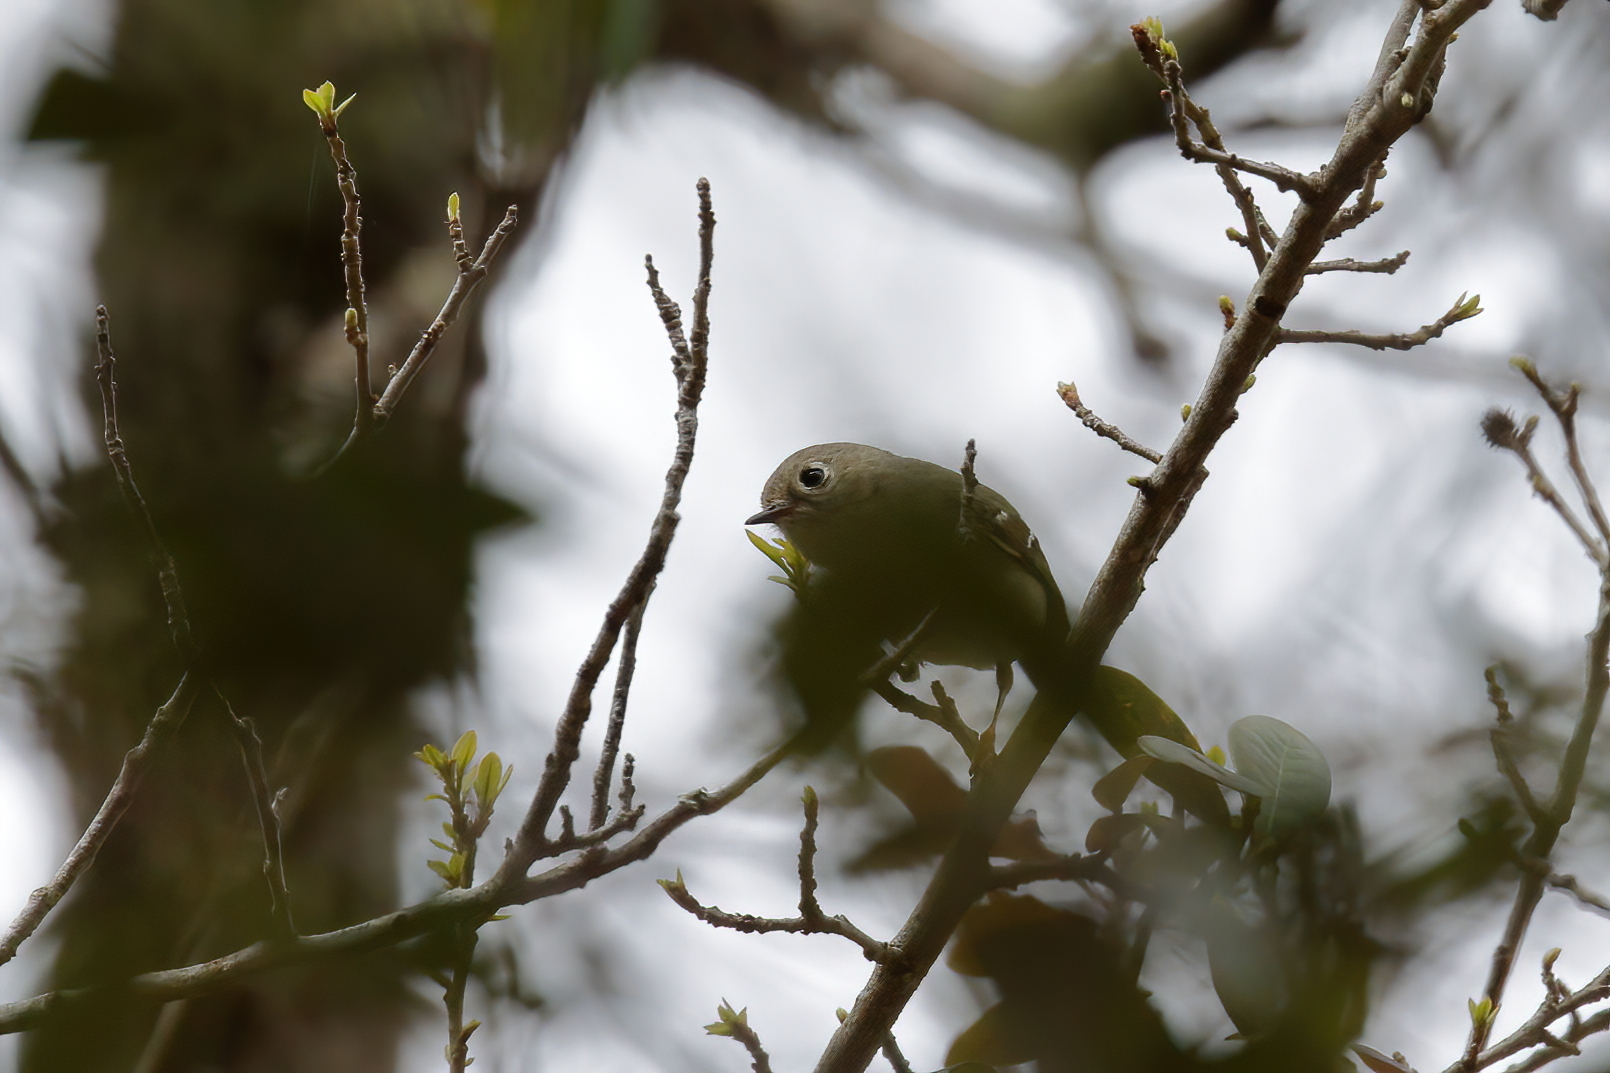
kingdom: Animalia
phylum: Chordata
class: Aves
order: Passeriformes
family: Regulidae
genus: Regulus
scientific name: Regulus calendula
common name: Ruby-crowned kinglet
